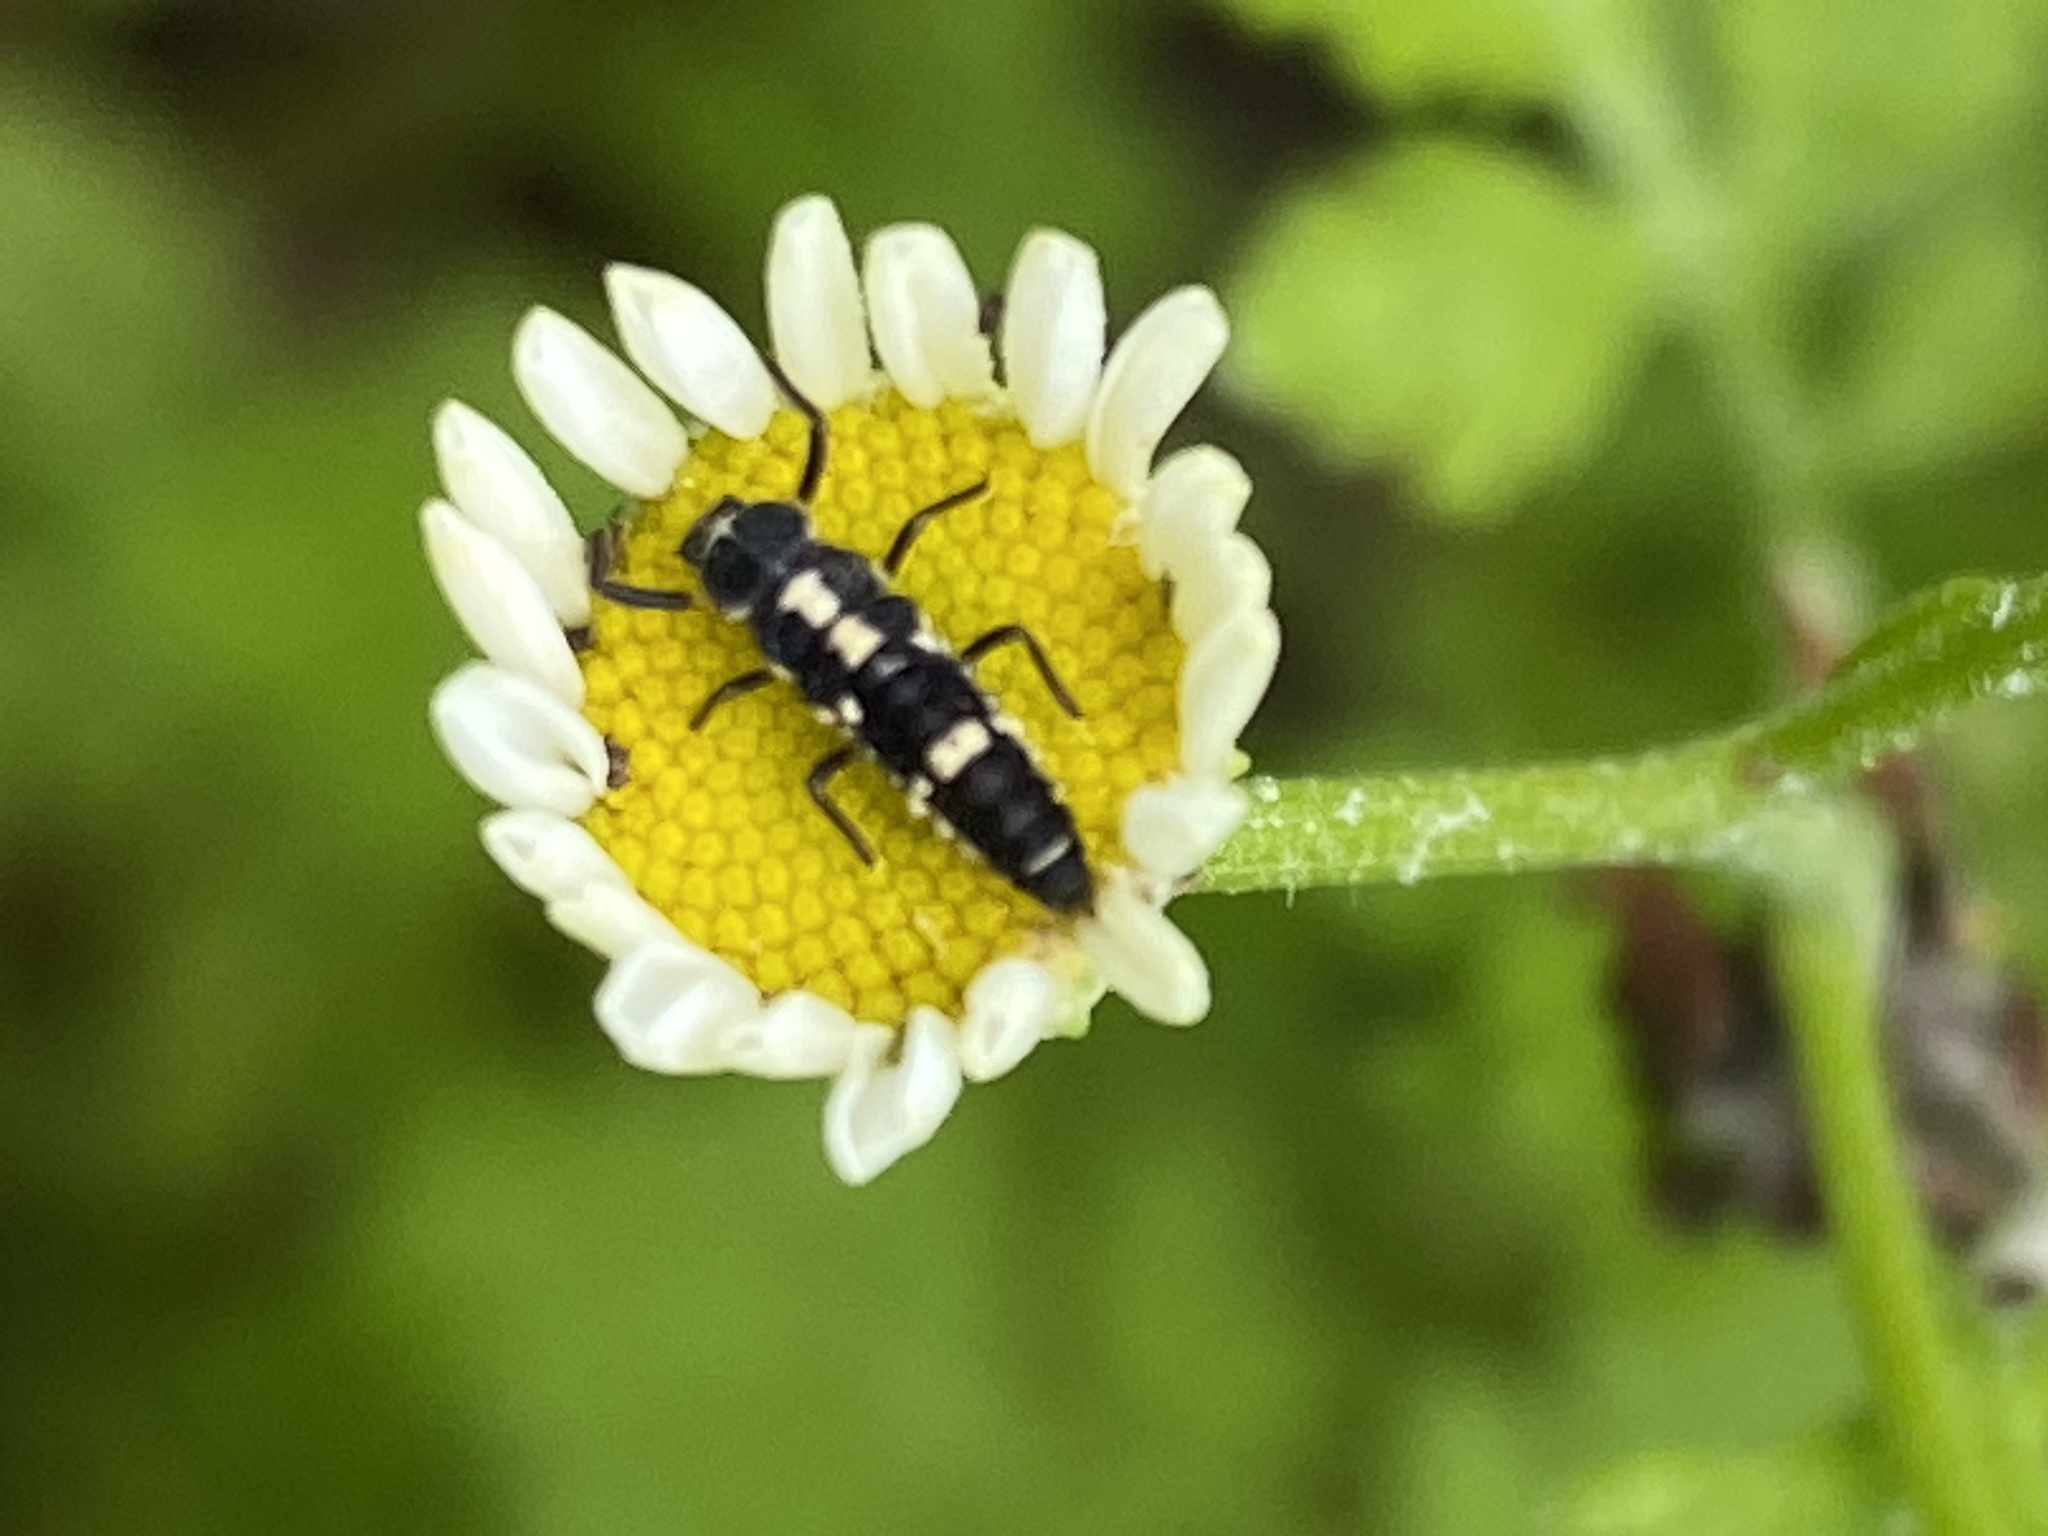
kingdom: Animalia
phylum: Arthropoda
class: Insecta
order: Coleoptera
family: Coccinellidae
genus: Propylaea
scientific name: Propylaea quatuordecimpunctata
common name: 14-spotted ladybird beetle
